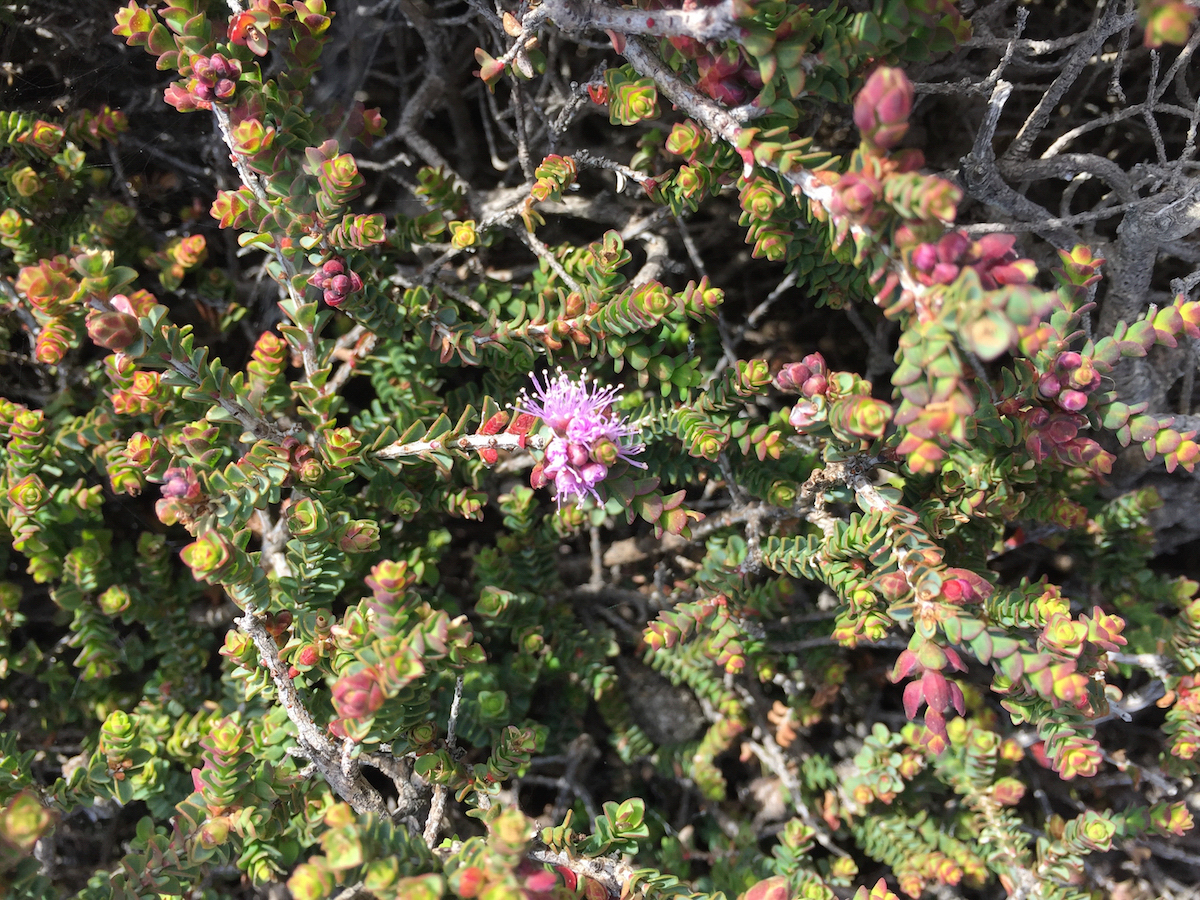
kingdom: Plantae
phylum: Tracheophyta
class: Magnoliopsida
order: Myrtales
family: Myrtaceae
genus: Melaleuca
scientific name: Melaleuca gibbosa
